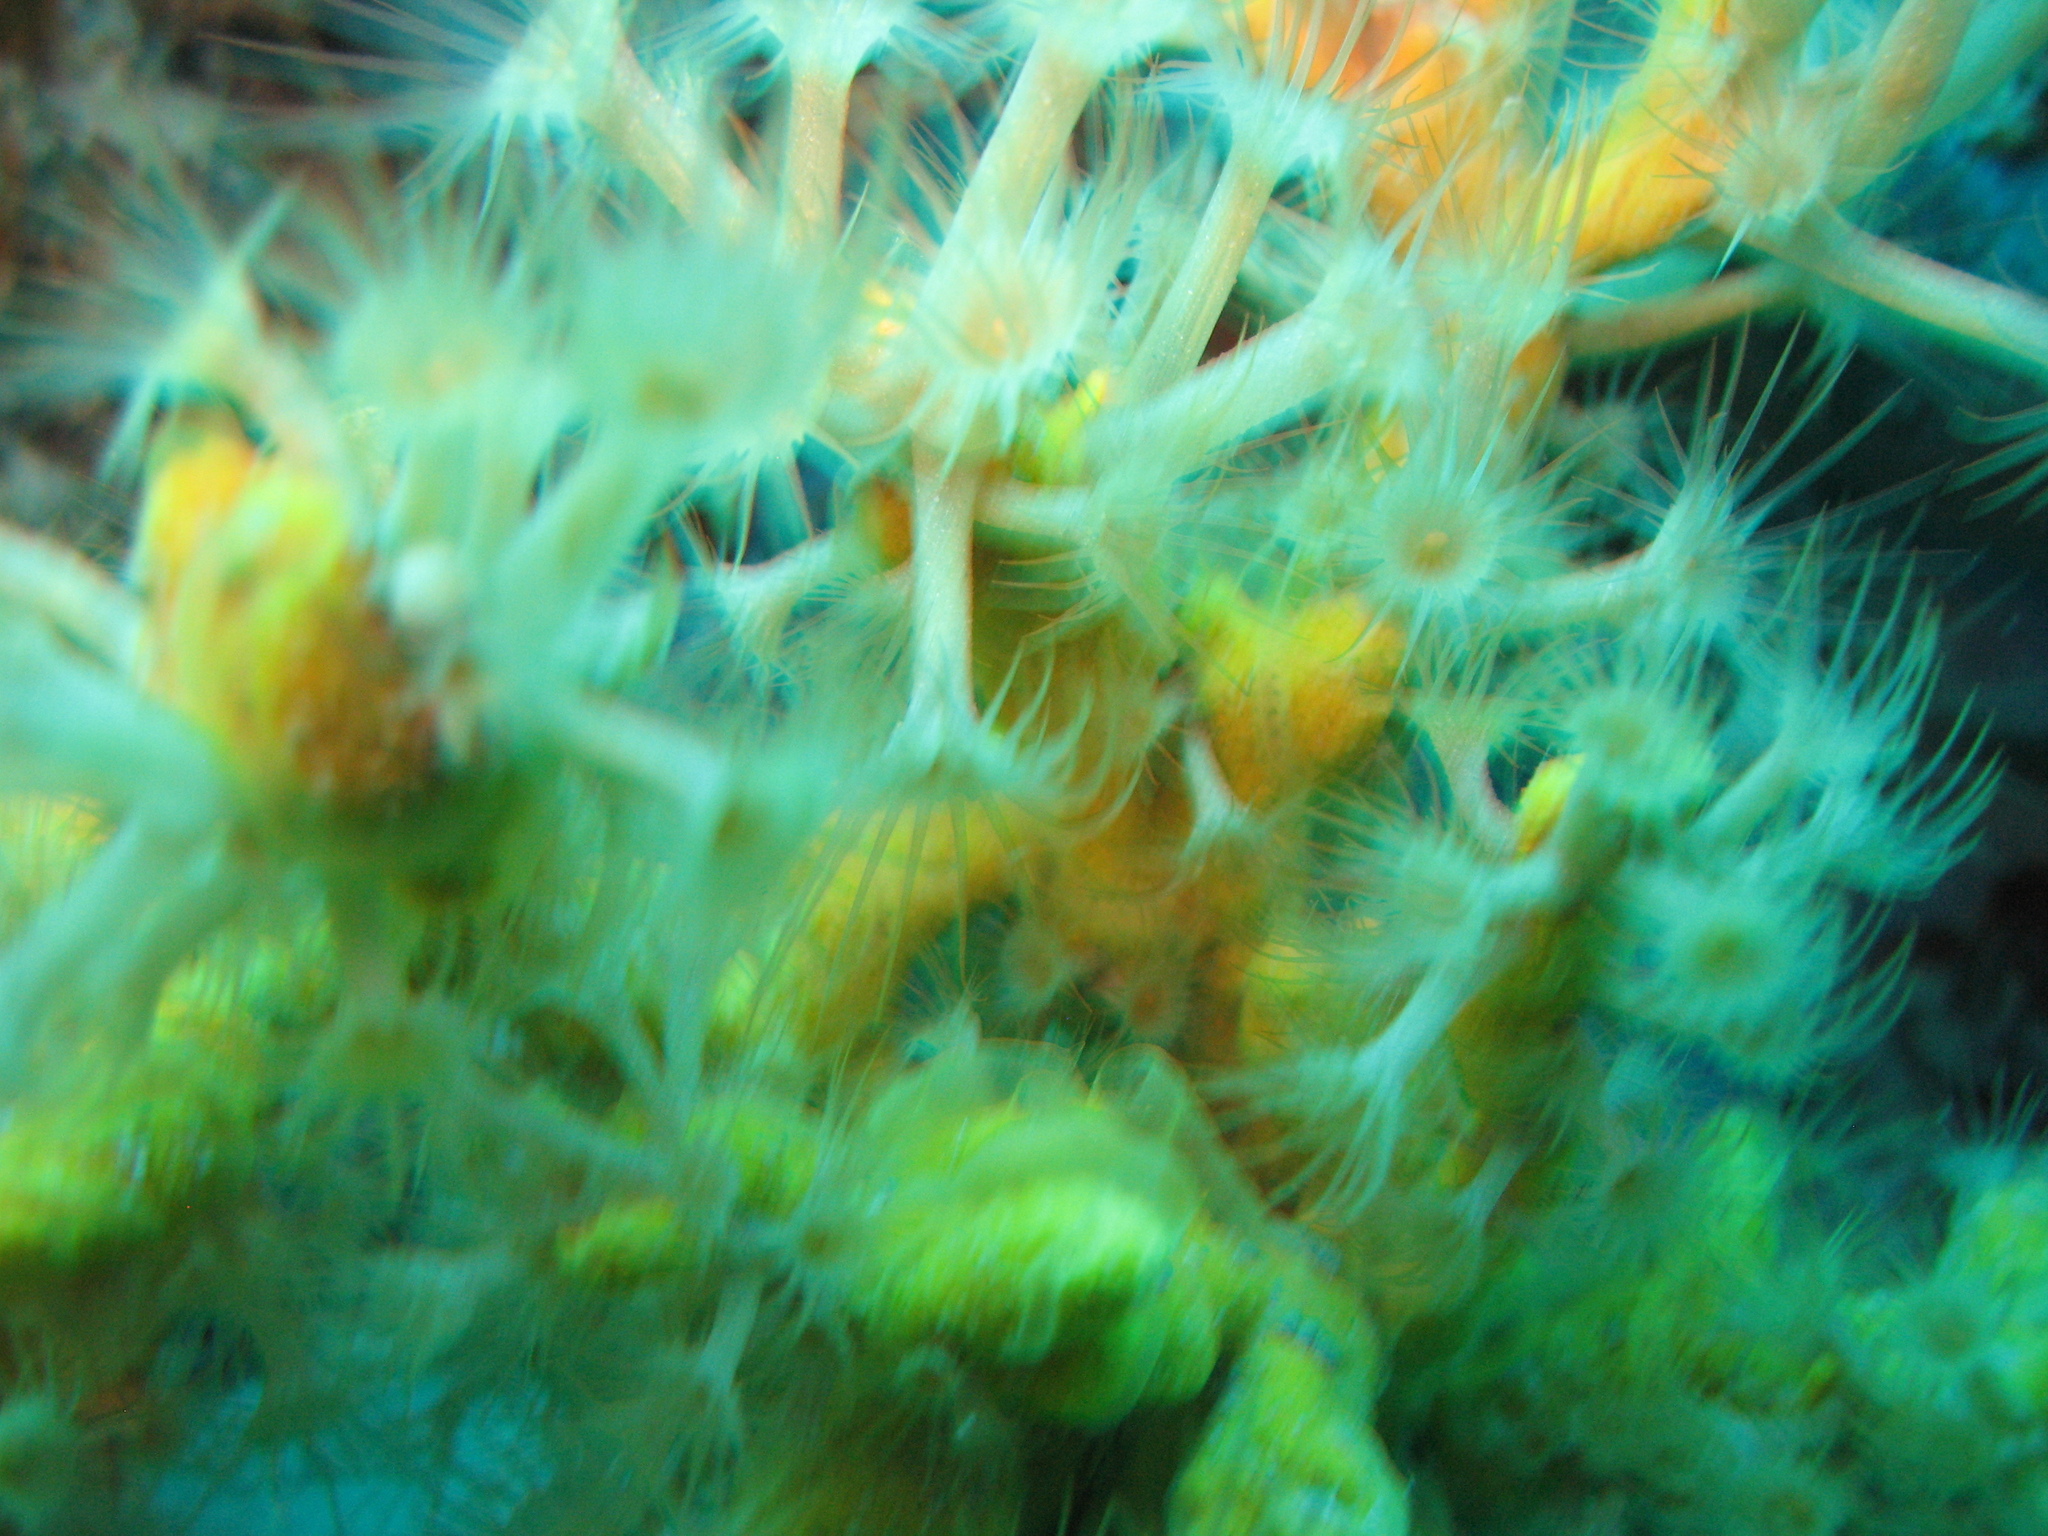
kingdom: Animalia
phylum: Cnidaria
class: Anthozoa
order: Zoantharia
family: Parazoanthidae
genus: Parazoanthus
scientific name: Parazoanthus axinellae
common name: Yellow cluster anemone
